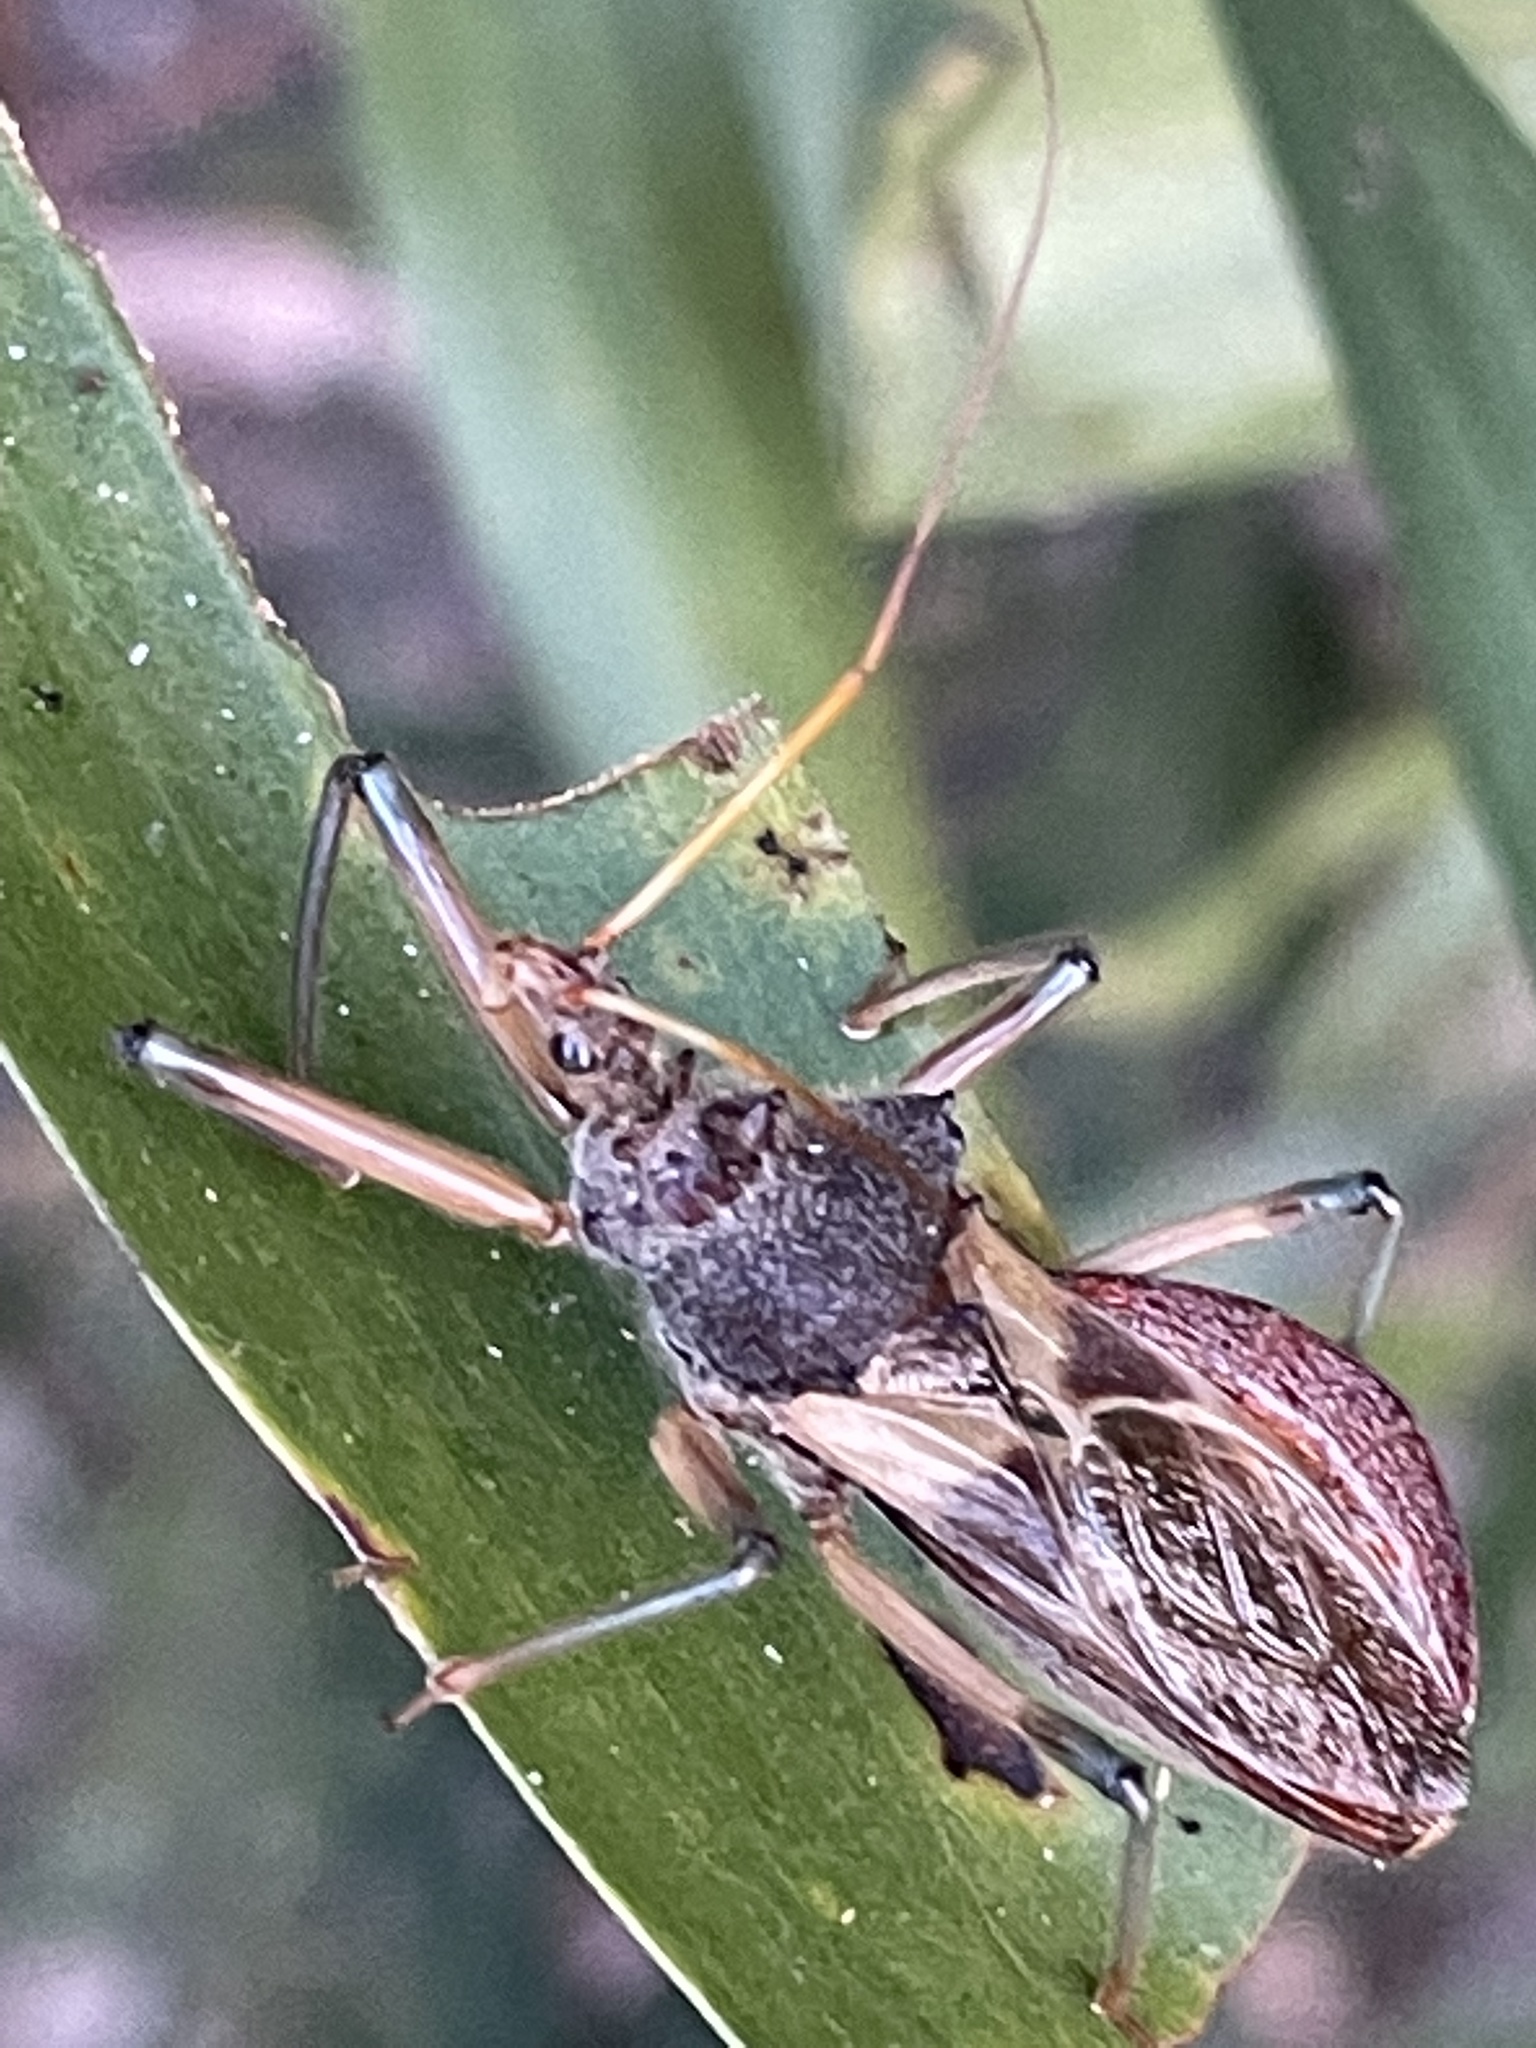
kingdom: Animalia
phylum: Arthropoda
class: Insecta
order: Hemiptera
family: Reduviidae
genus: Pristhesancus
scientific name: Pristhesancus plagipennis
